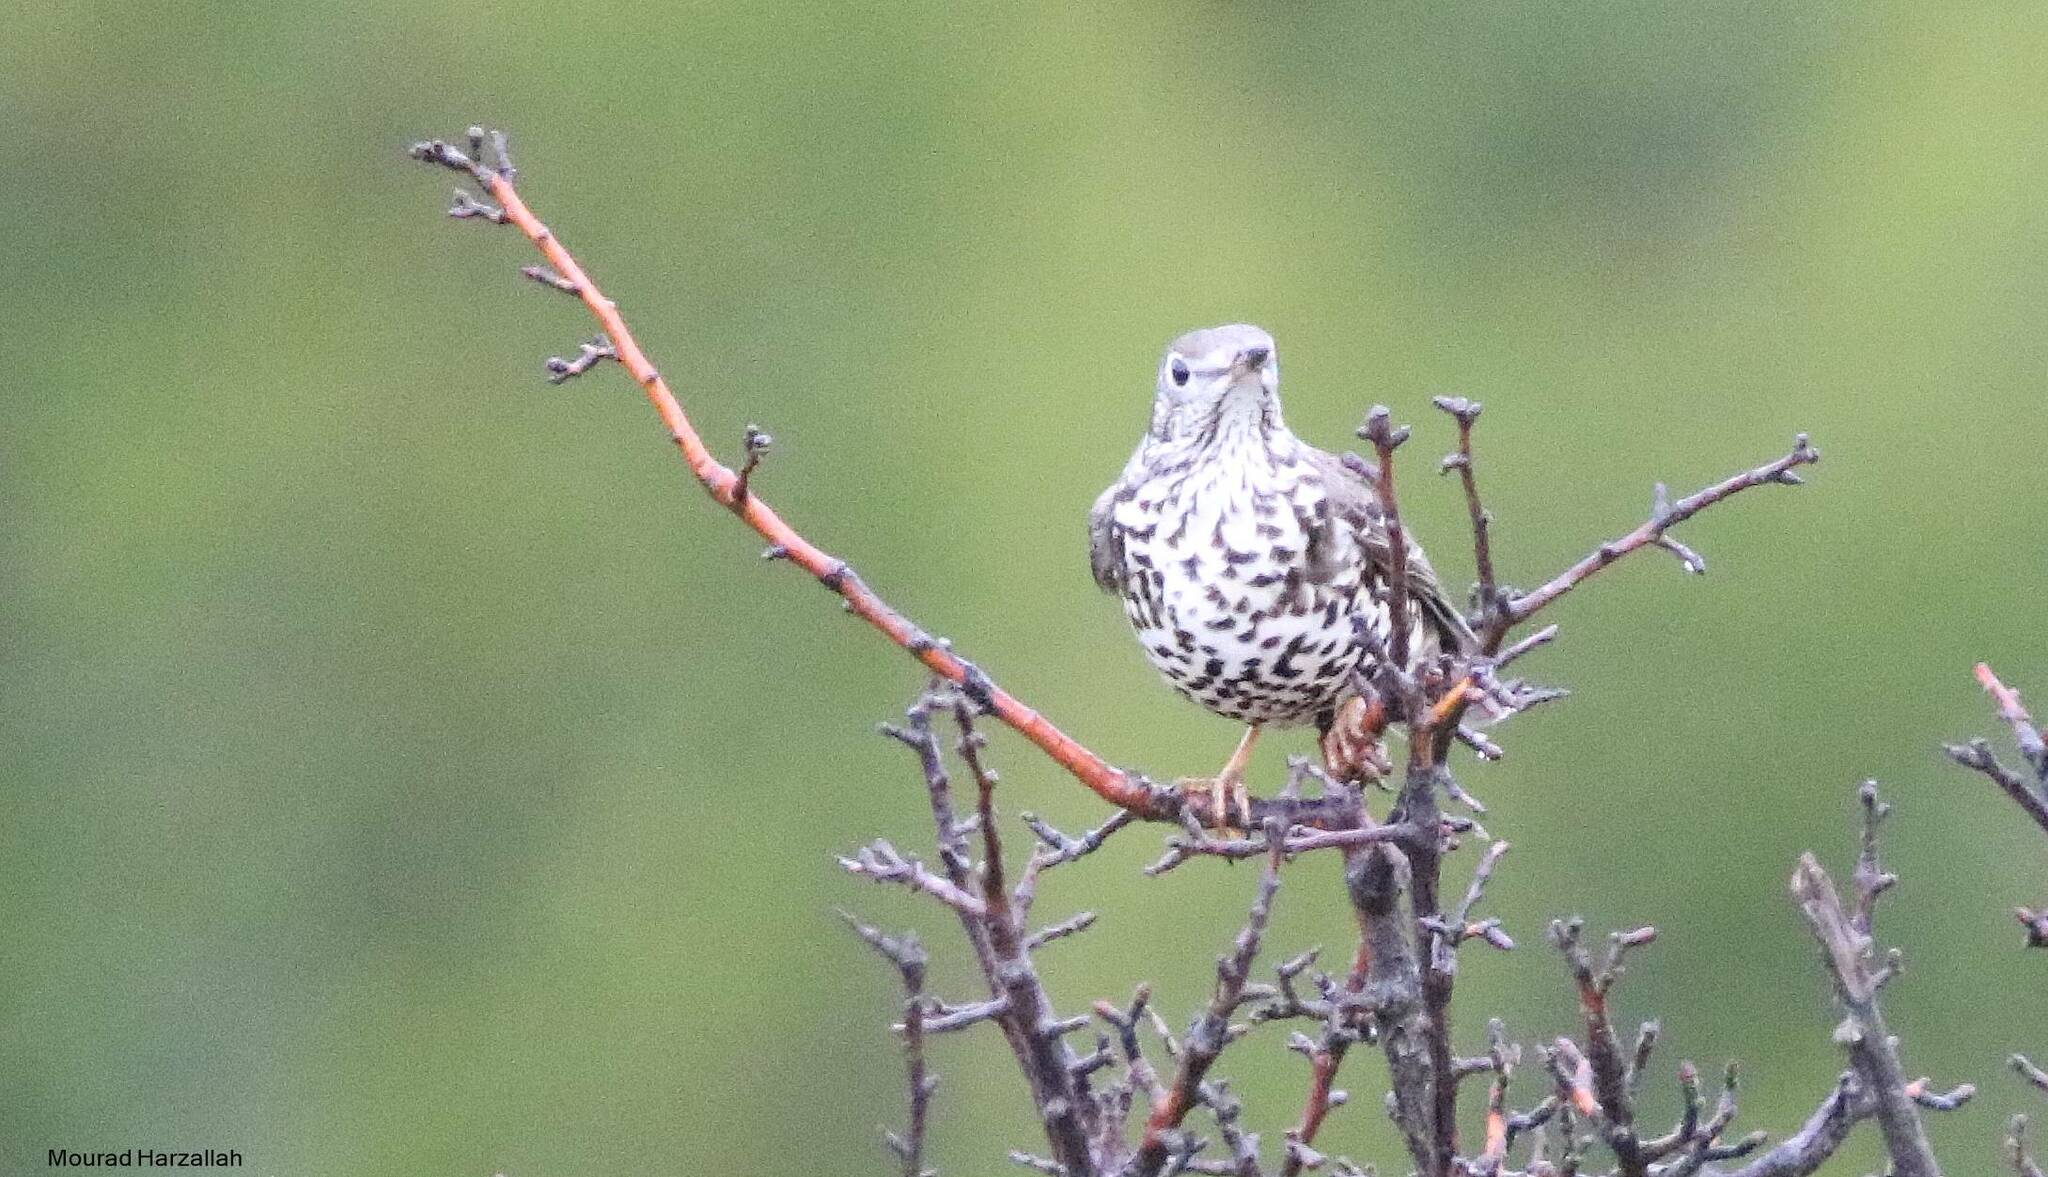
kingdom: Animalia
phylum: Chordata
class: Aves
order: Passeriformes
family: Turdidae
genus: Turdus
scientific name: Turdus viscivorus
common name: Mistle thrush
